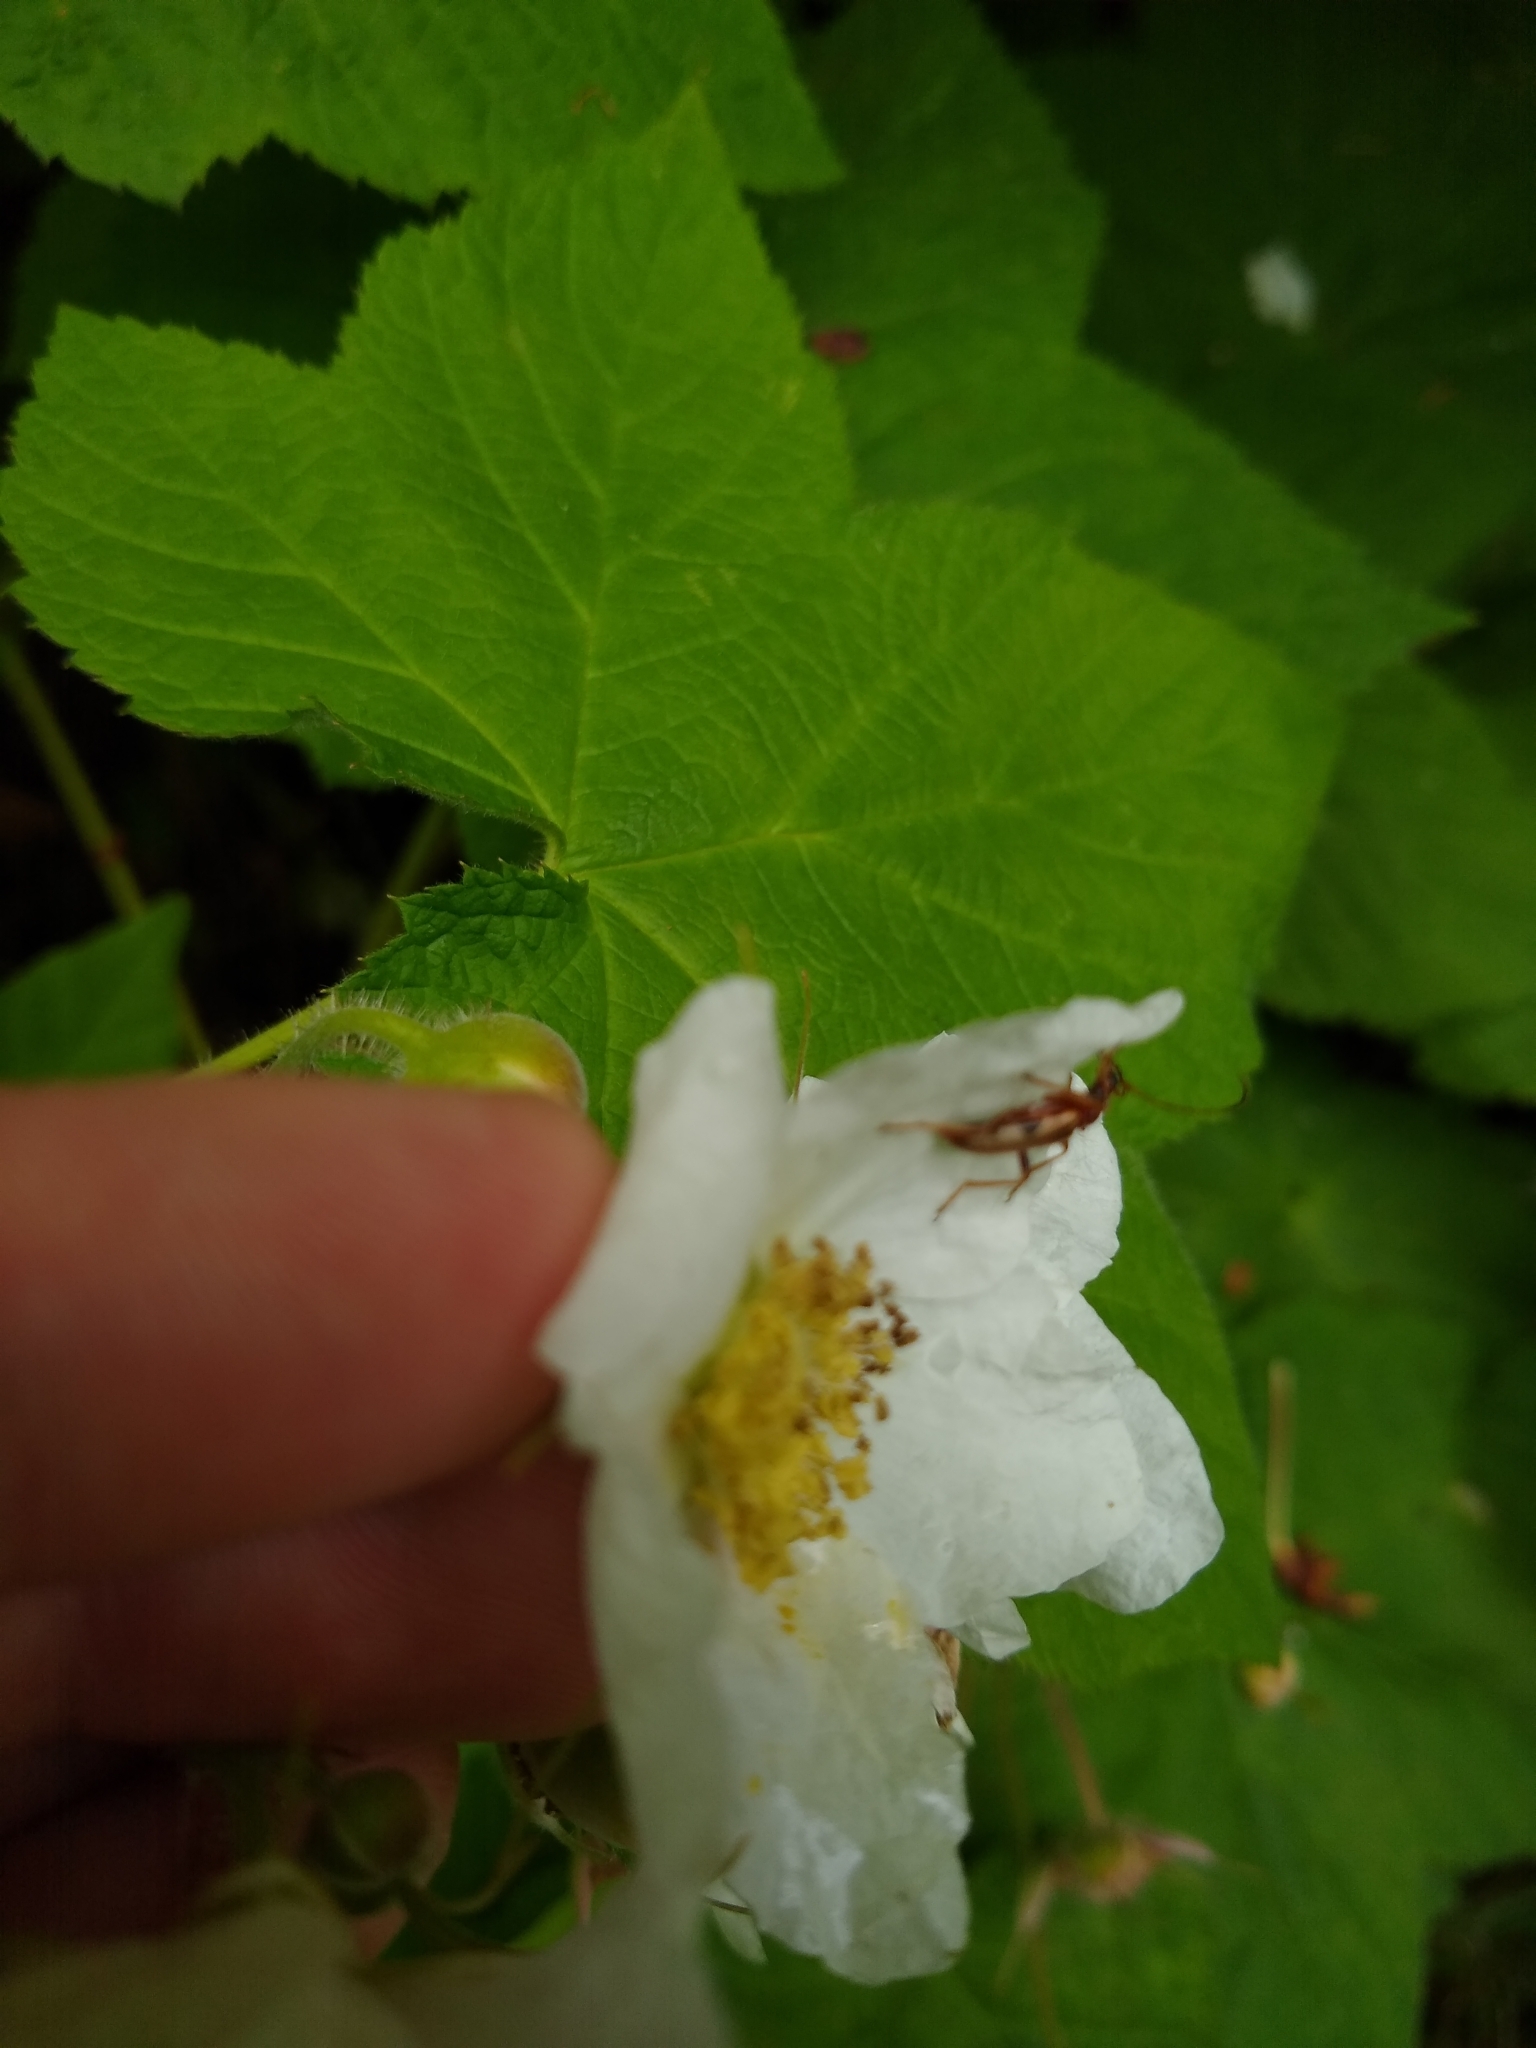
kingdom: Animalia
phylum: Arthropoda
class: Insecta
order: Coleoptera
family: Cerambycidae
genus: Pidonia
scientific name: Pidonia scripta
